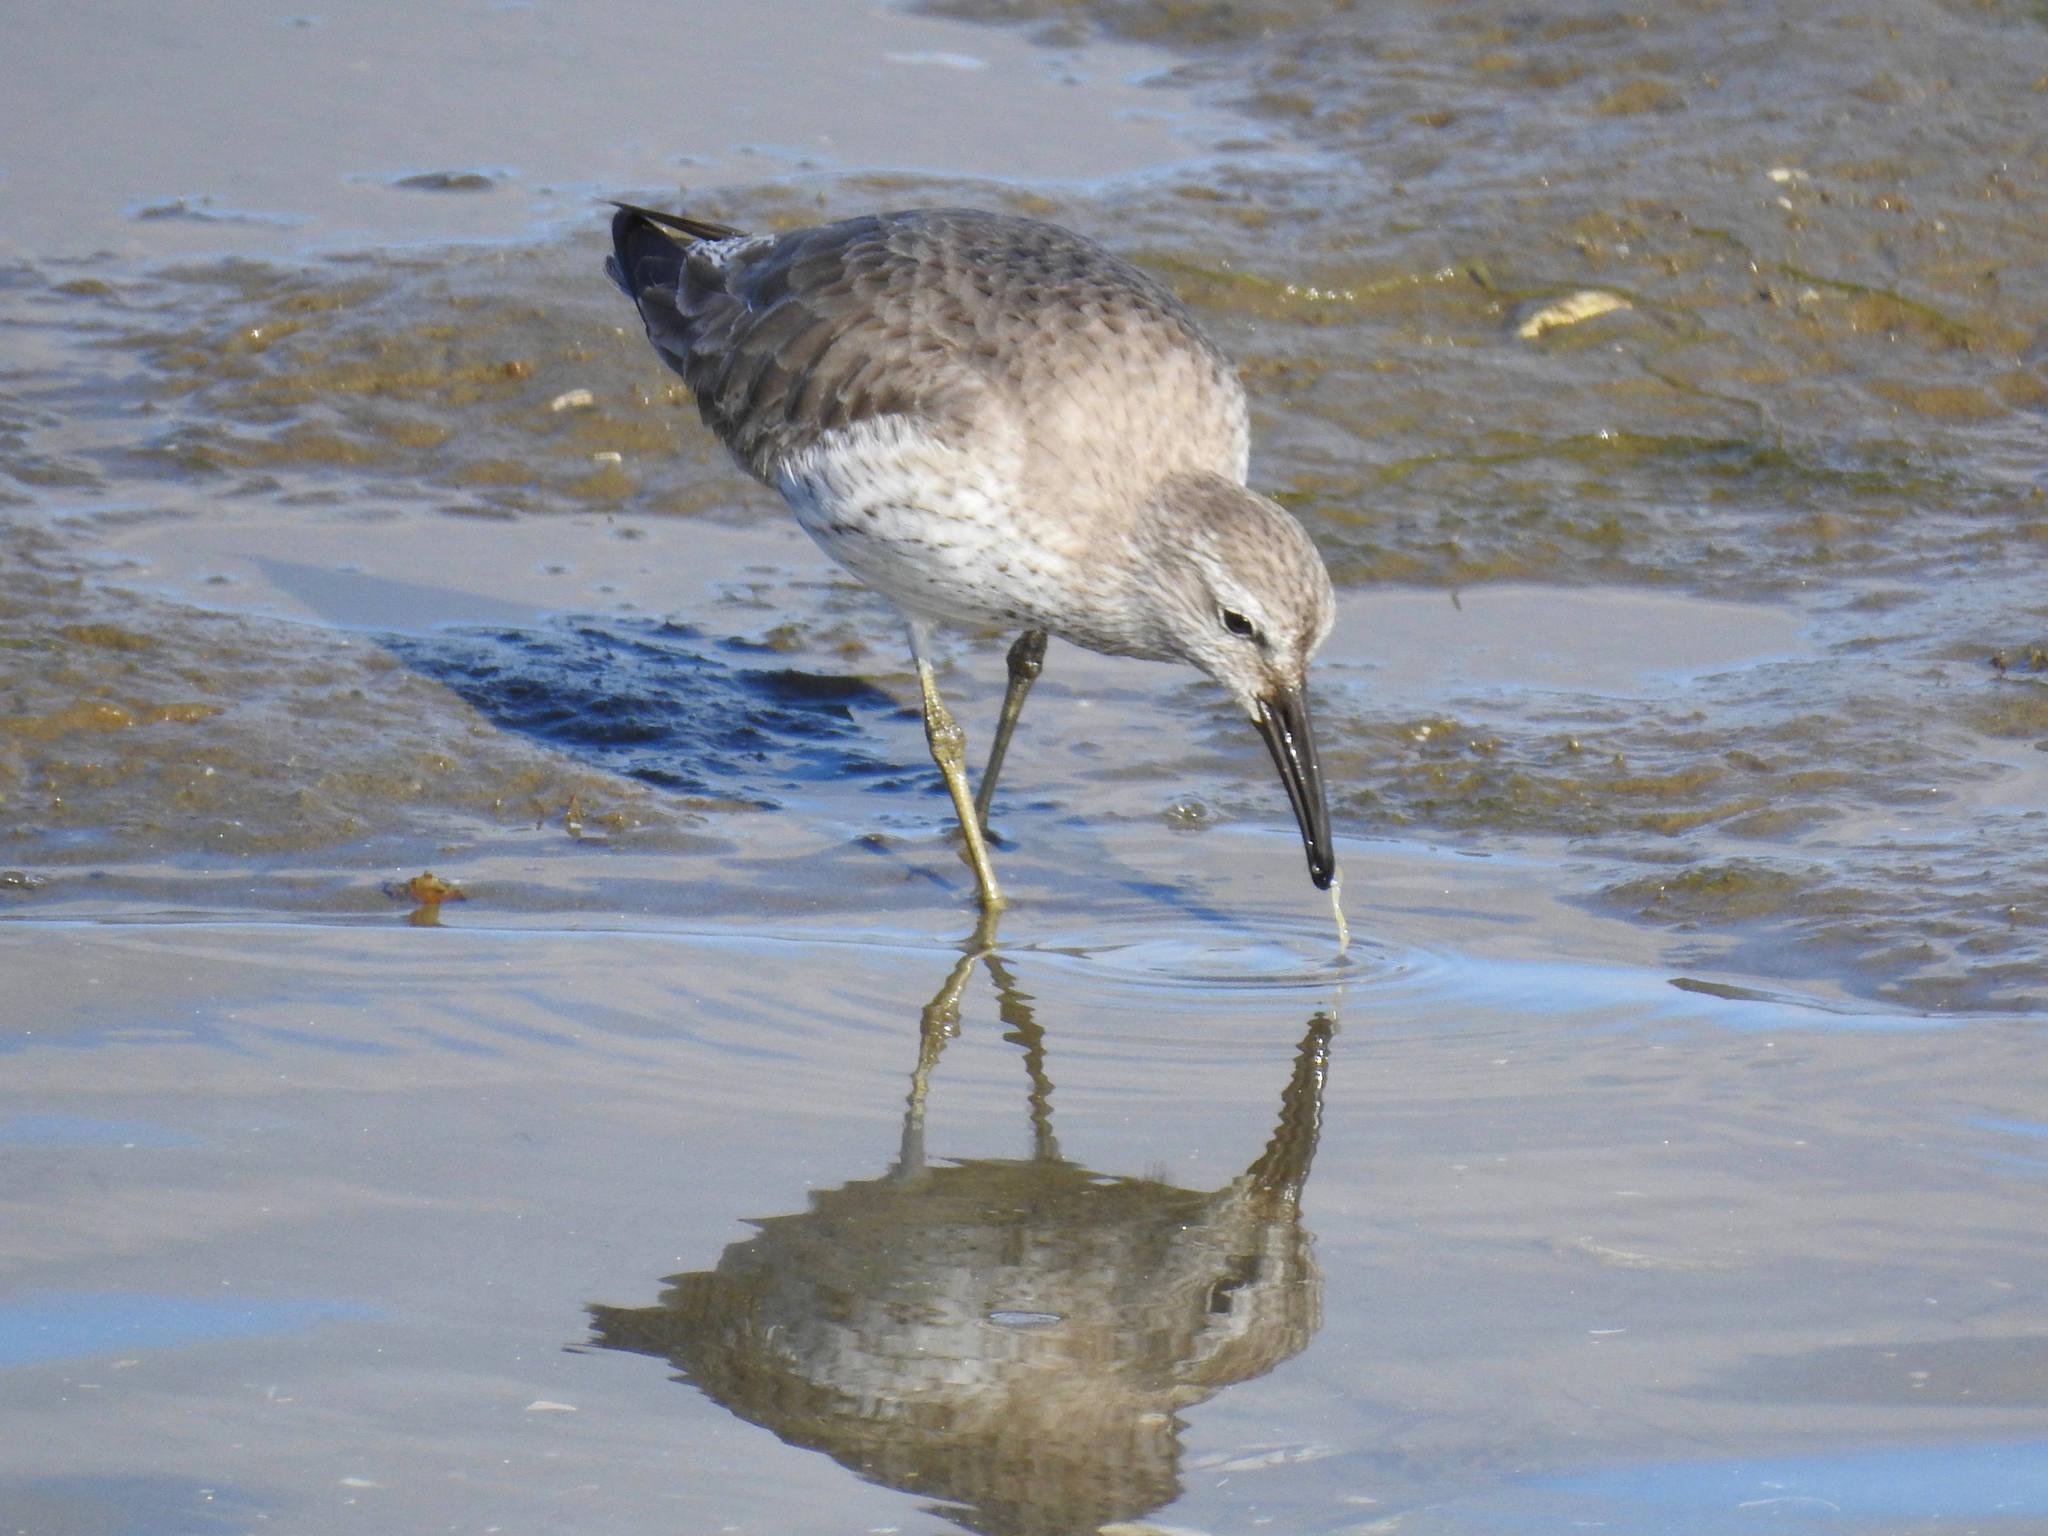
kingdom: Animalia
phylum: Chordata
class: Aves
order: Charadriiformes
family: Scolopacidae
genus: Calidris
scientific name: Calidris canutus
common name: Red knot
